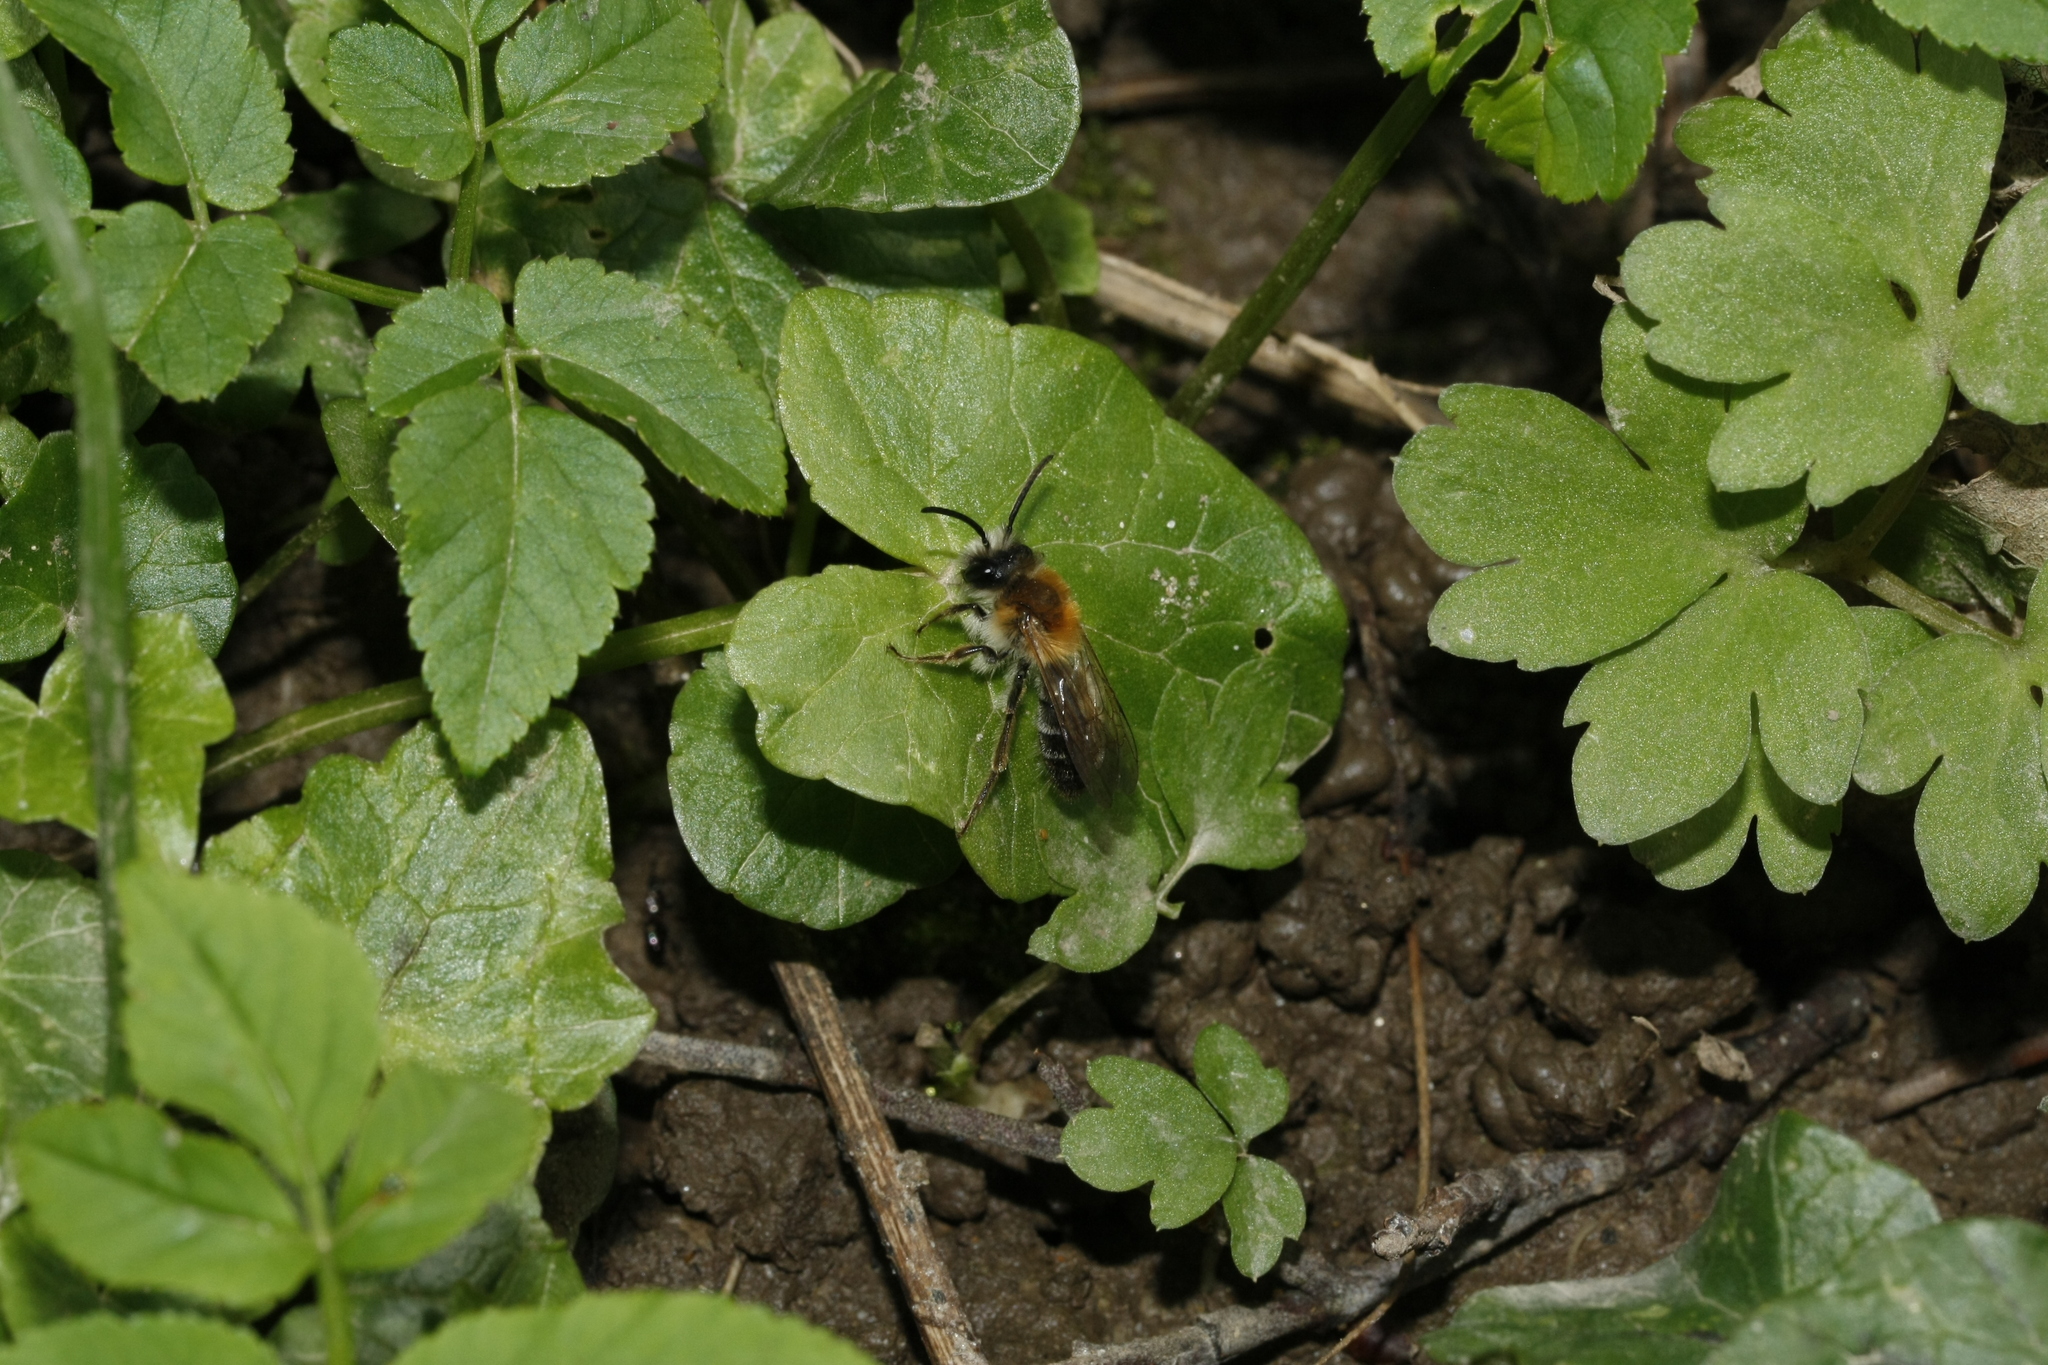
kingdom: Animalia
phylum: Arthropoda
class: Insecta
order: Hymenoptera
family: Andrenidae
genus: Andrena
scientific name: Andrena nitida
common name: Grey-patched mining bee
